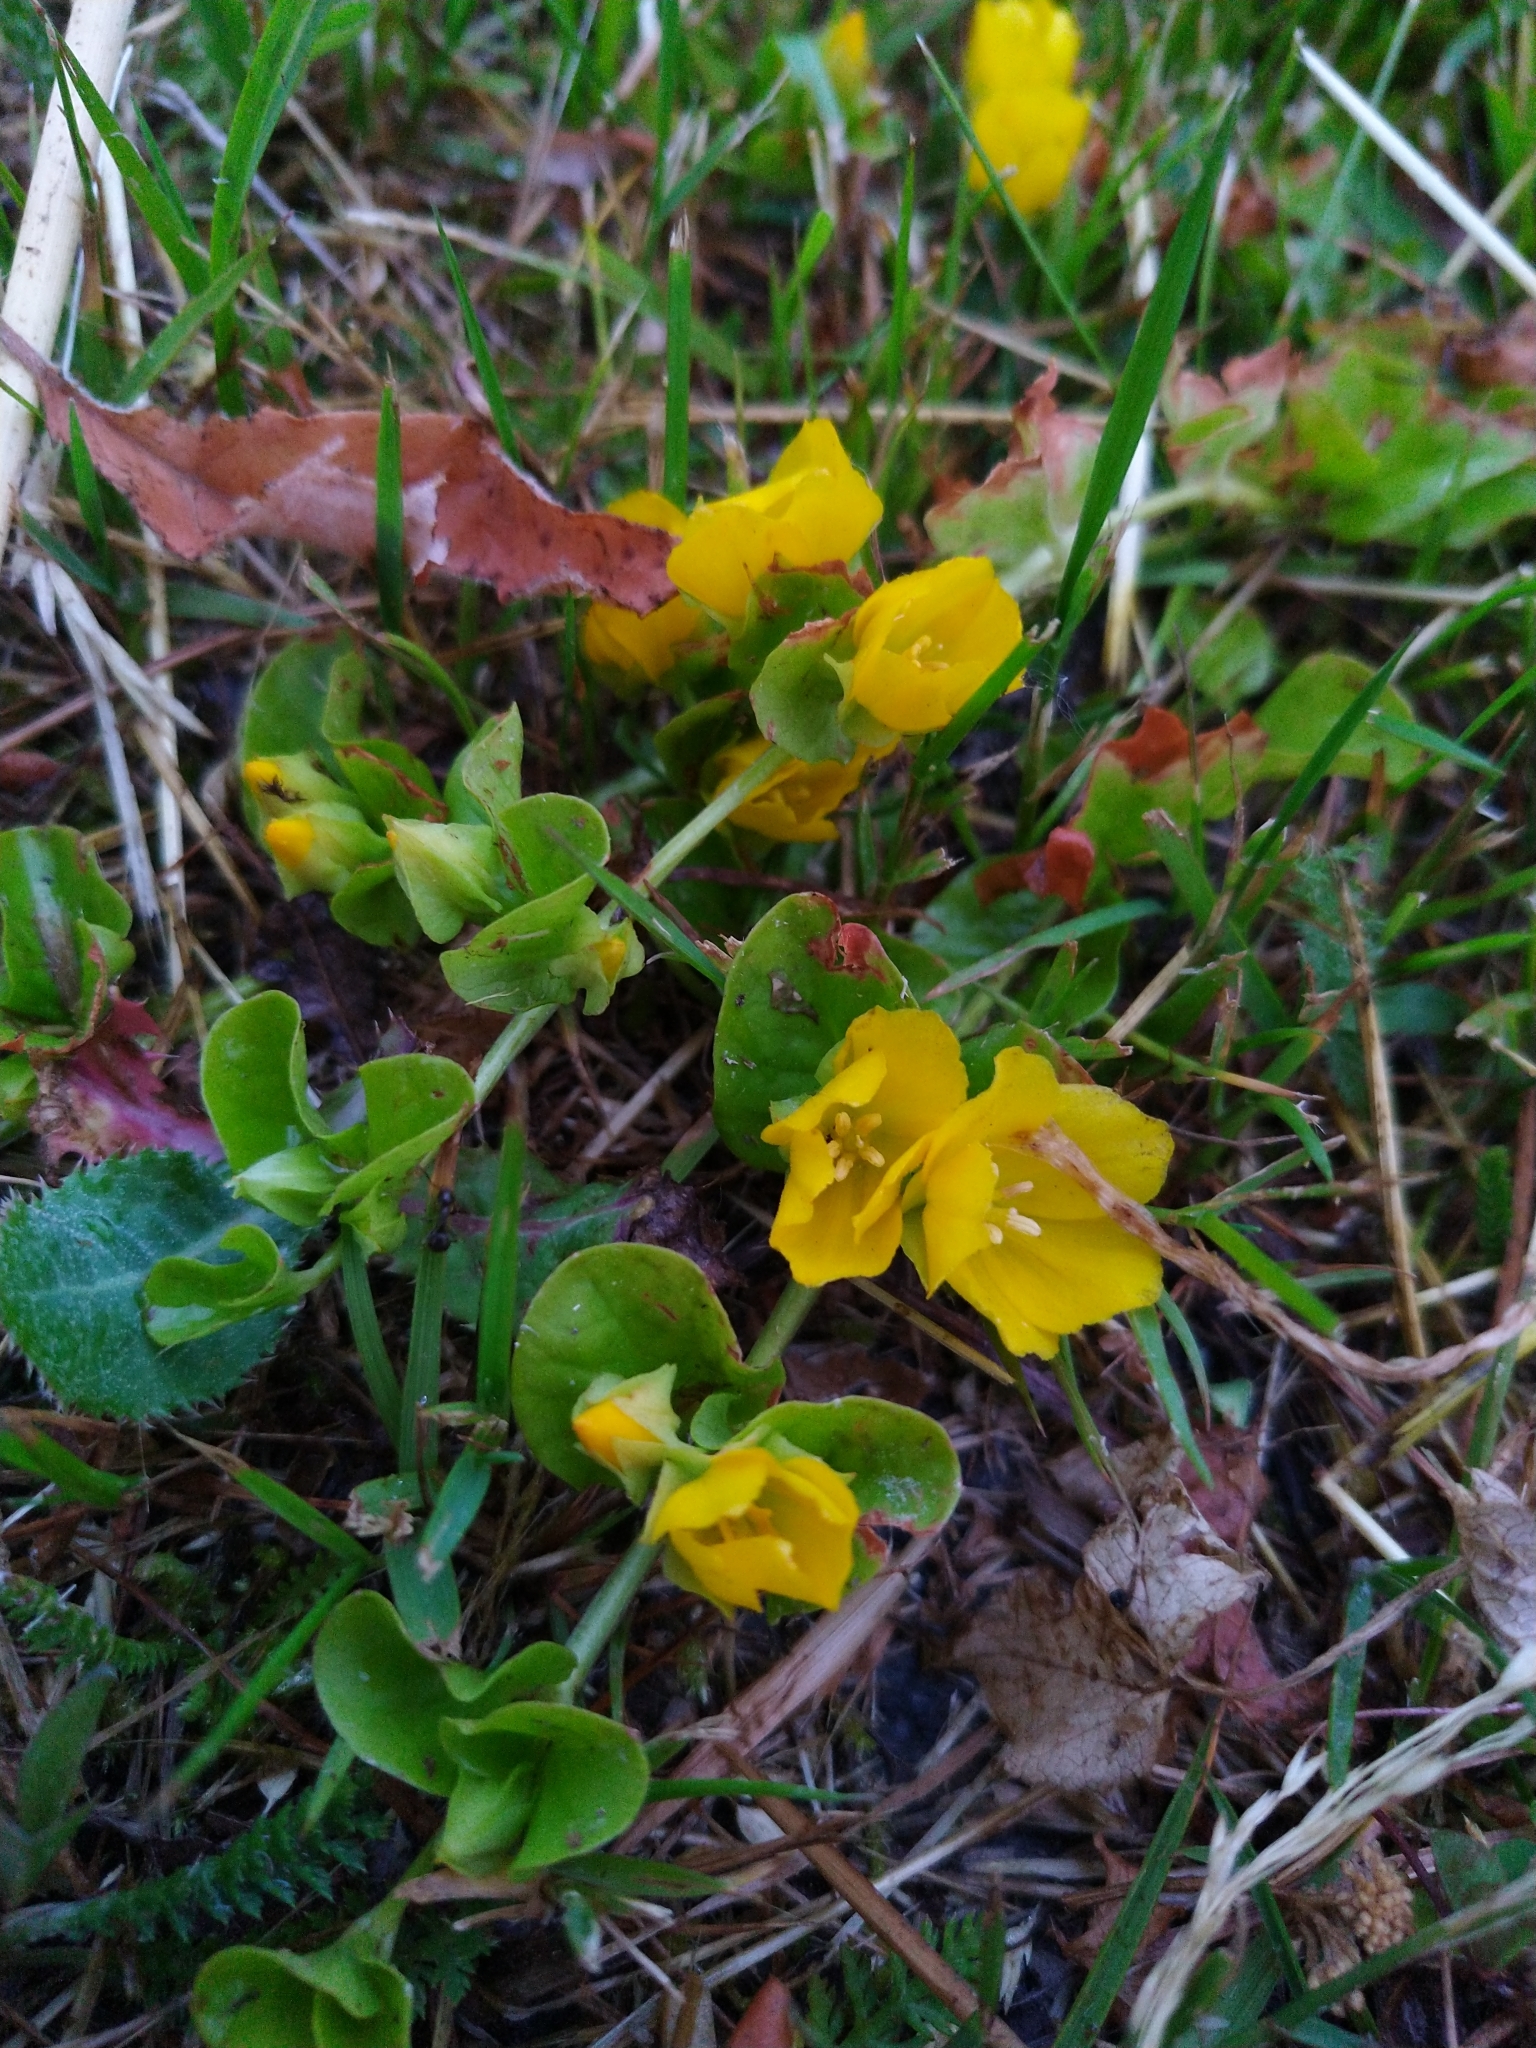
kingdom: Plantae
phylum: Tracheophyta
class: Magnoliopsida
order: Ericales
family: Primulaceae
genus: Lysimachia
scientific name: Lysimachia nummularia
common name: Moneywort
